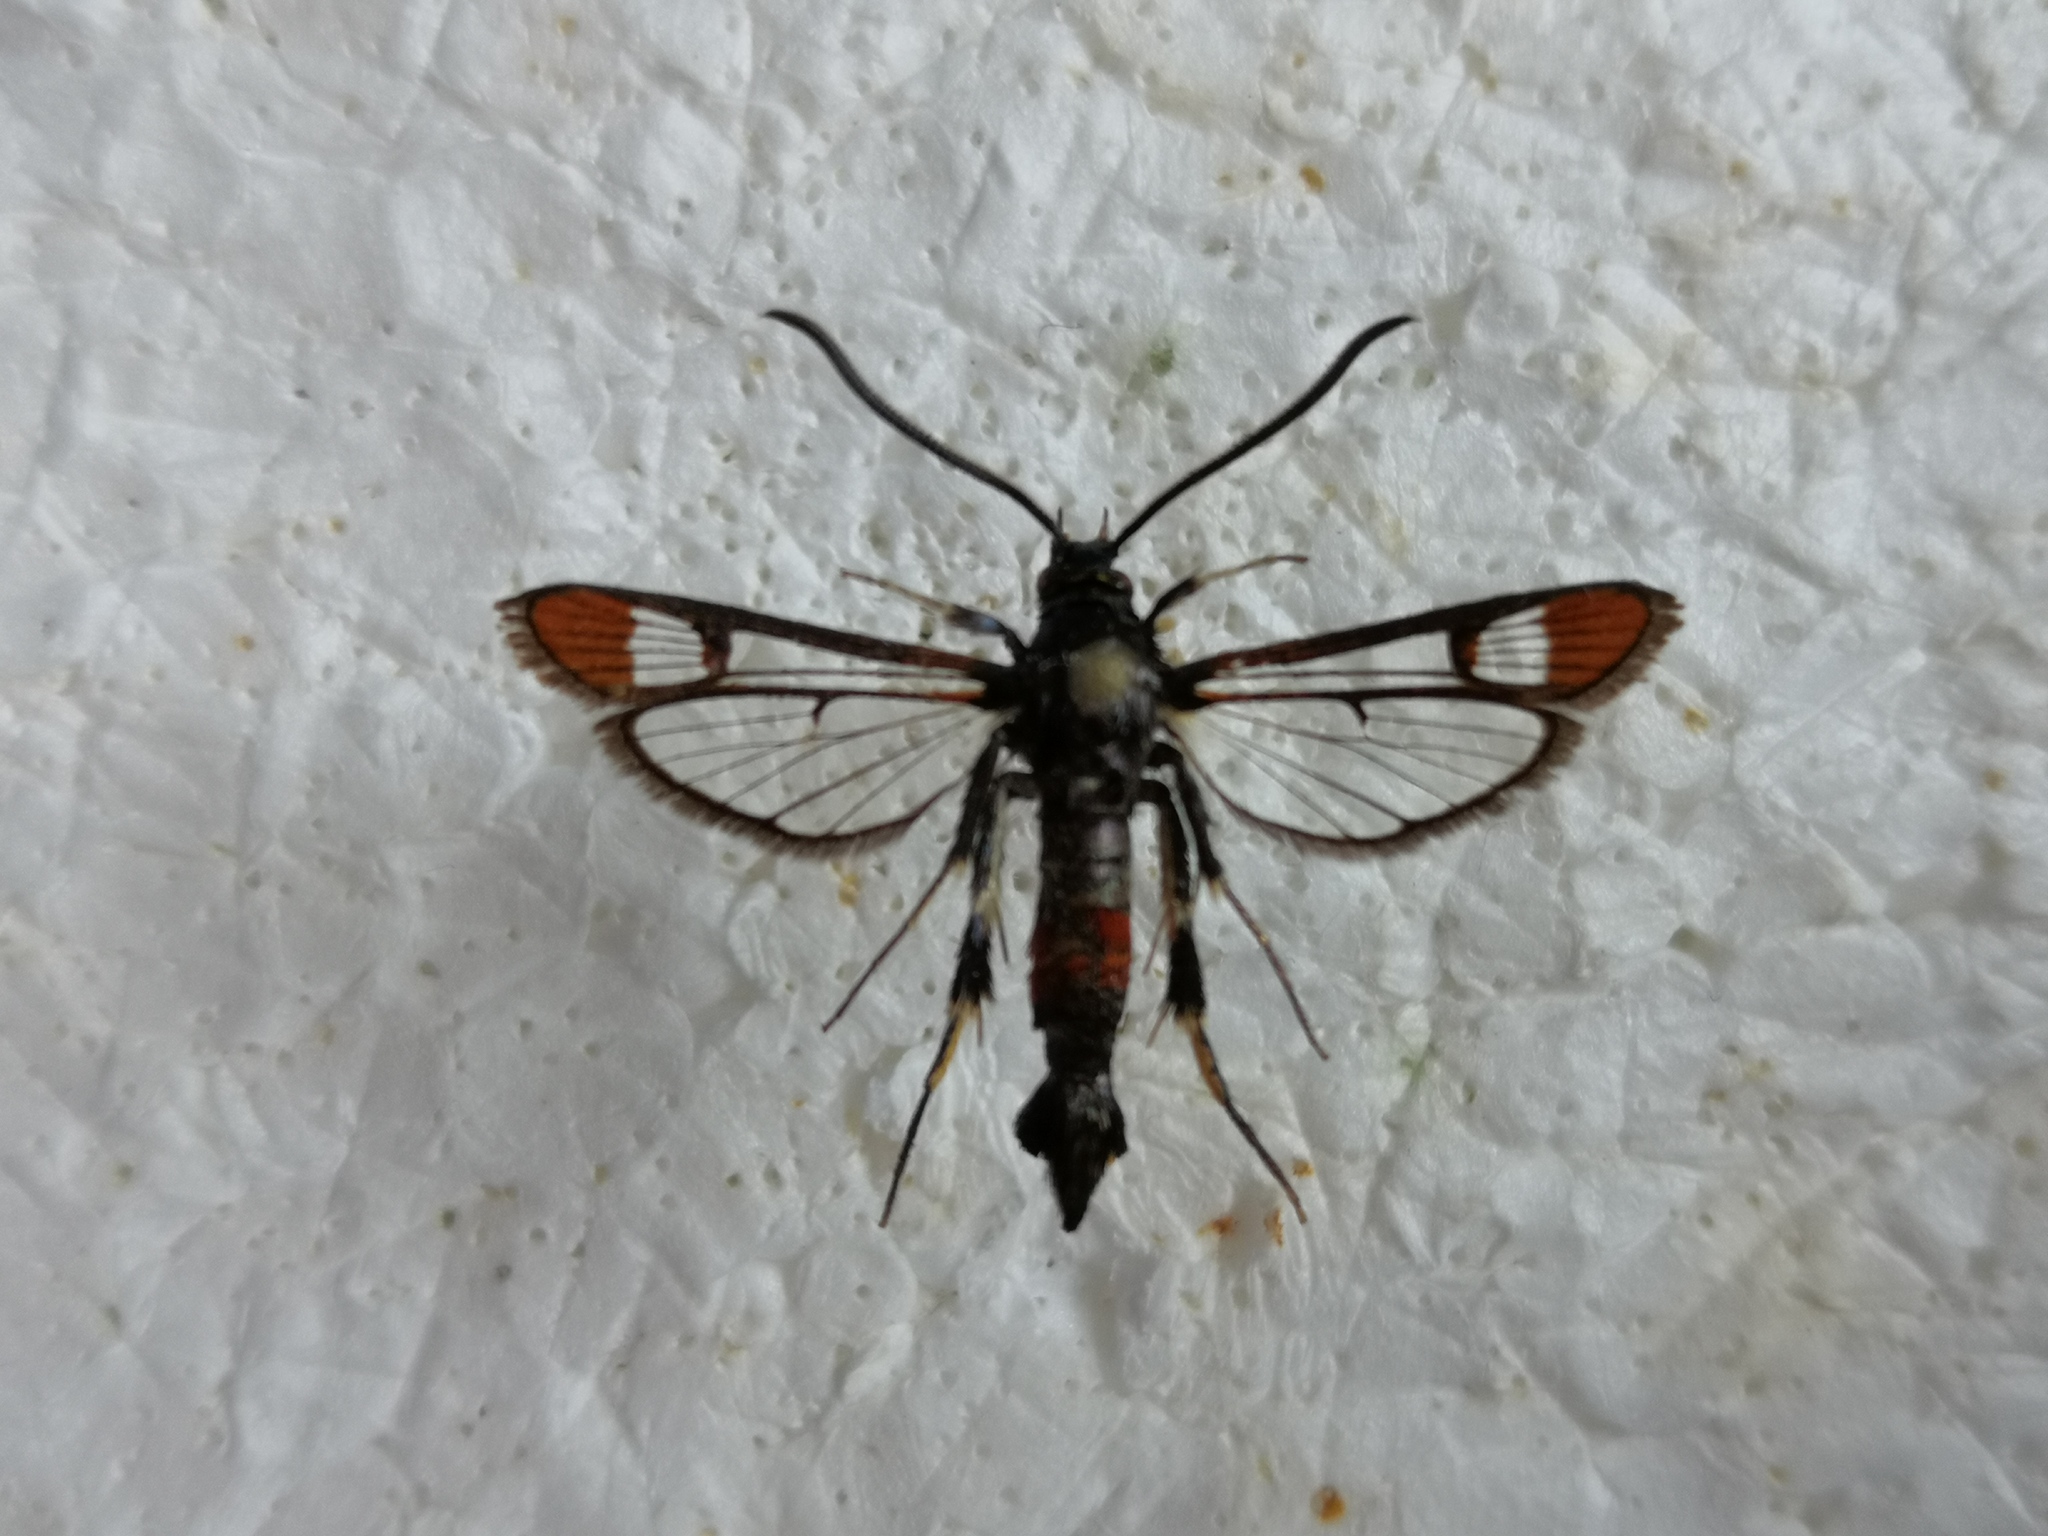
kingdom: Animalia
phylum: Arthropoda
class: Insecta
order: Lepidoptera
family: Sesiidae
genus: Synanthedon
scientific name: Synanthedon formicaeformis
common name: Red-tipped clearwing
